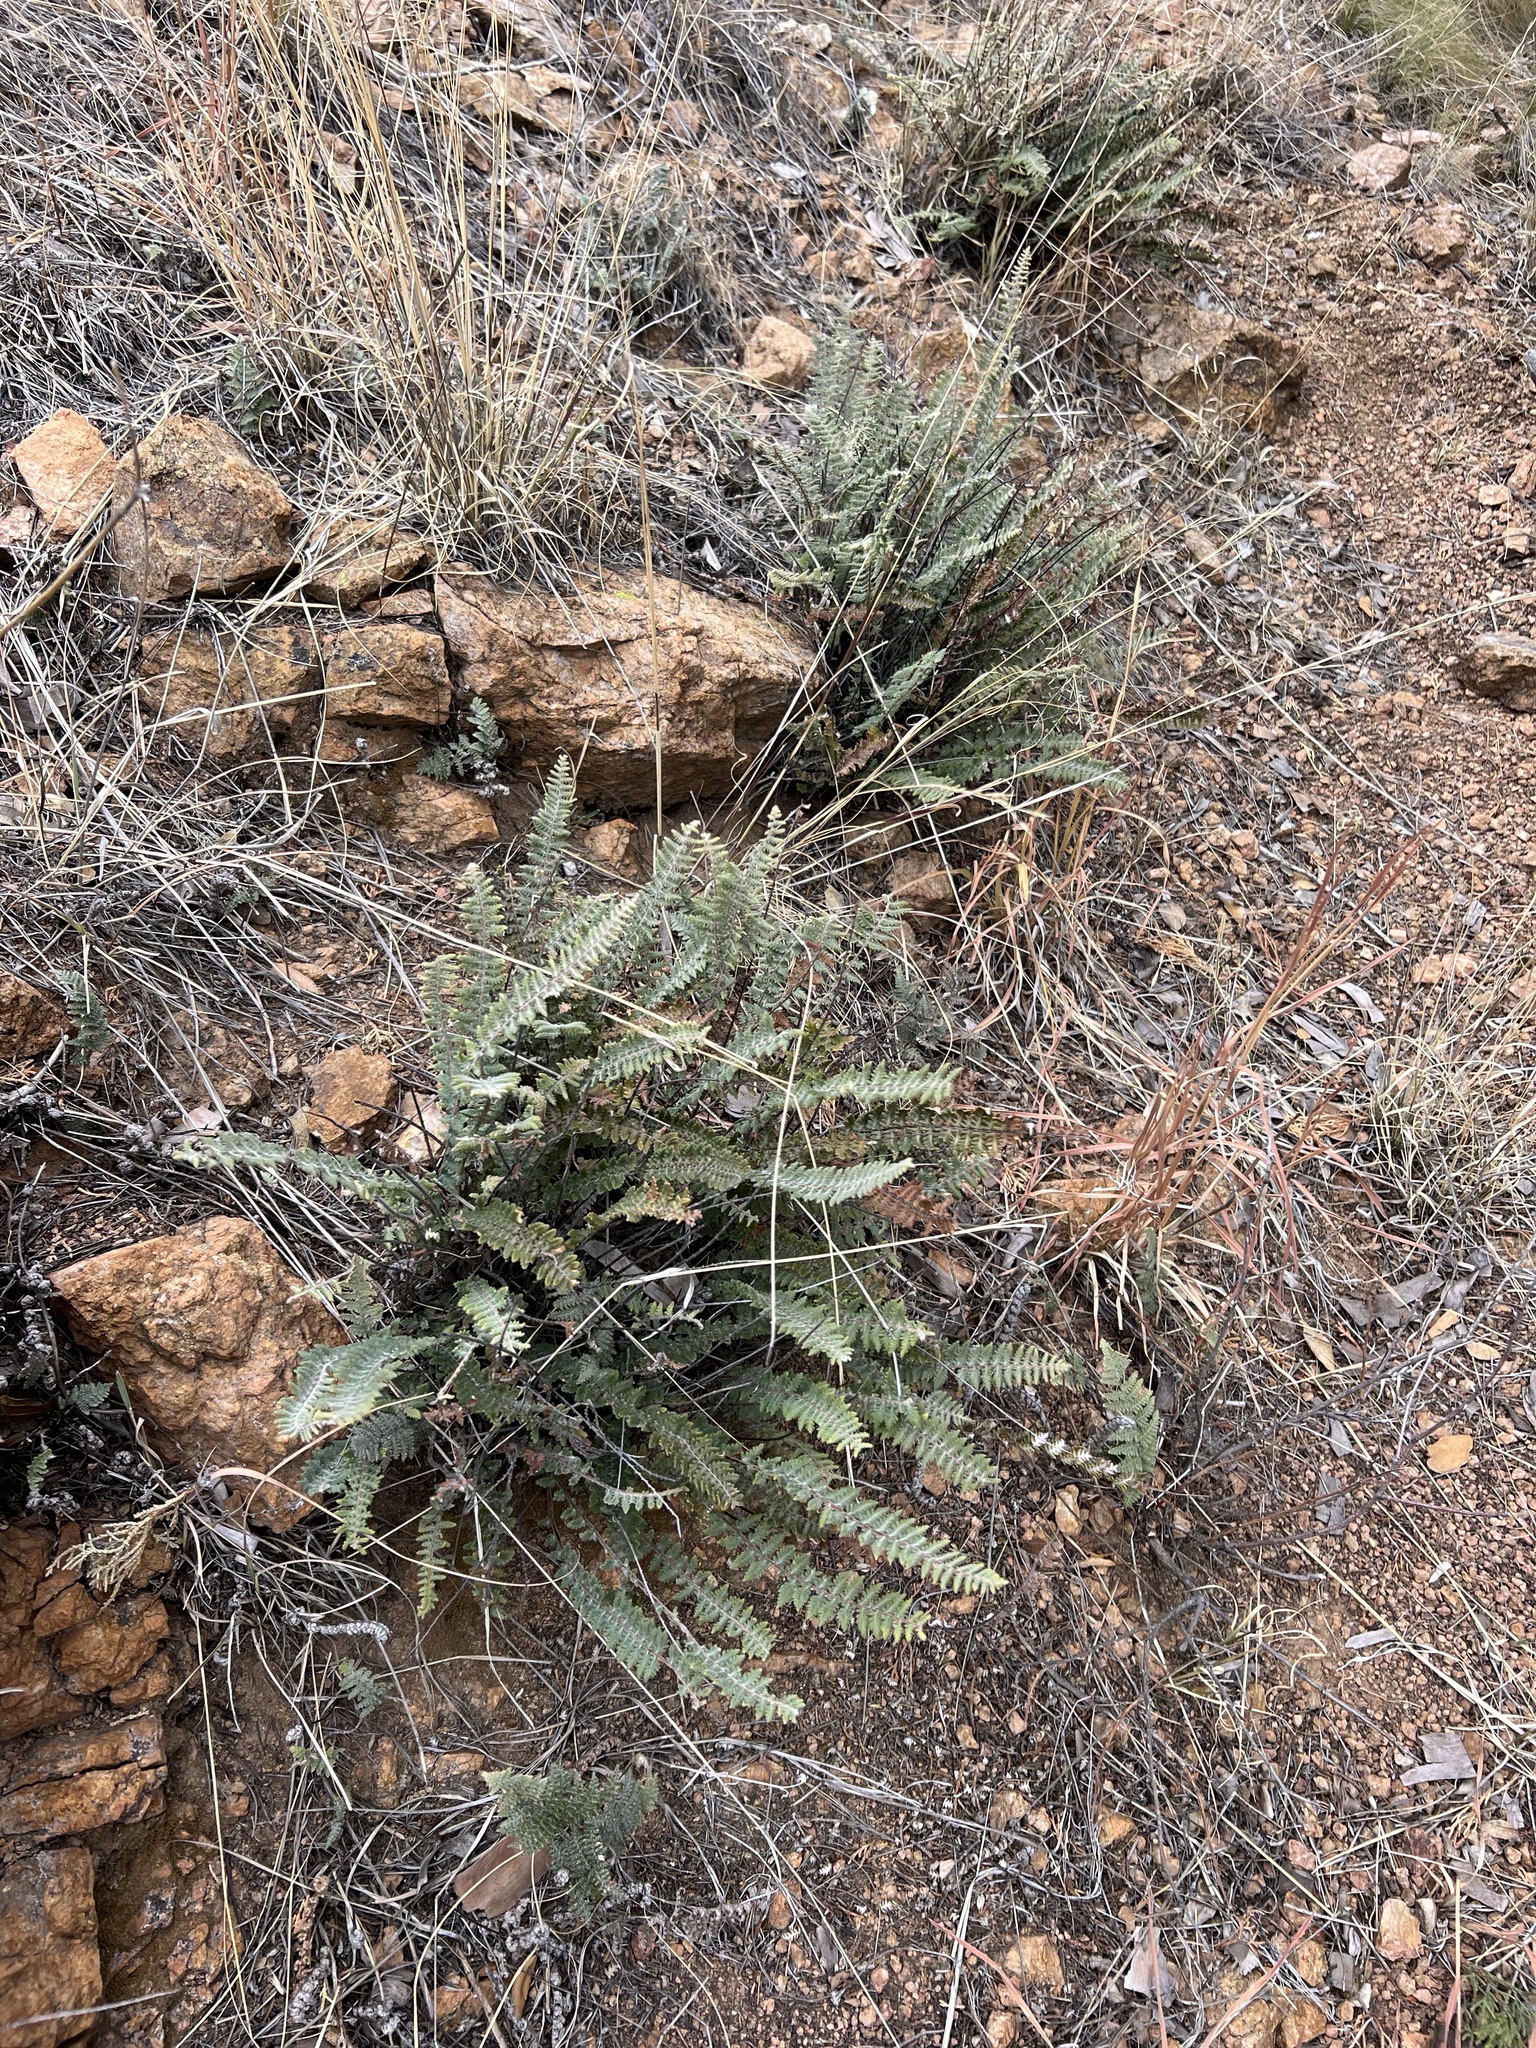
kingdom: Plantae
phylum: Tracheophyta
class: Polypodiopsida
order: Polypodiales
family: Pteridaceae
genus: Myriopteris
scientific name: Myriopteris aurea
